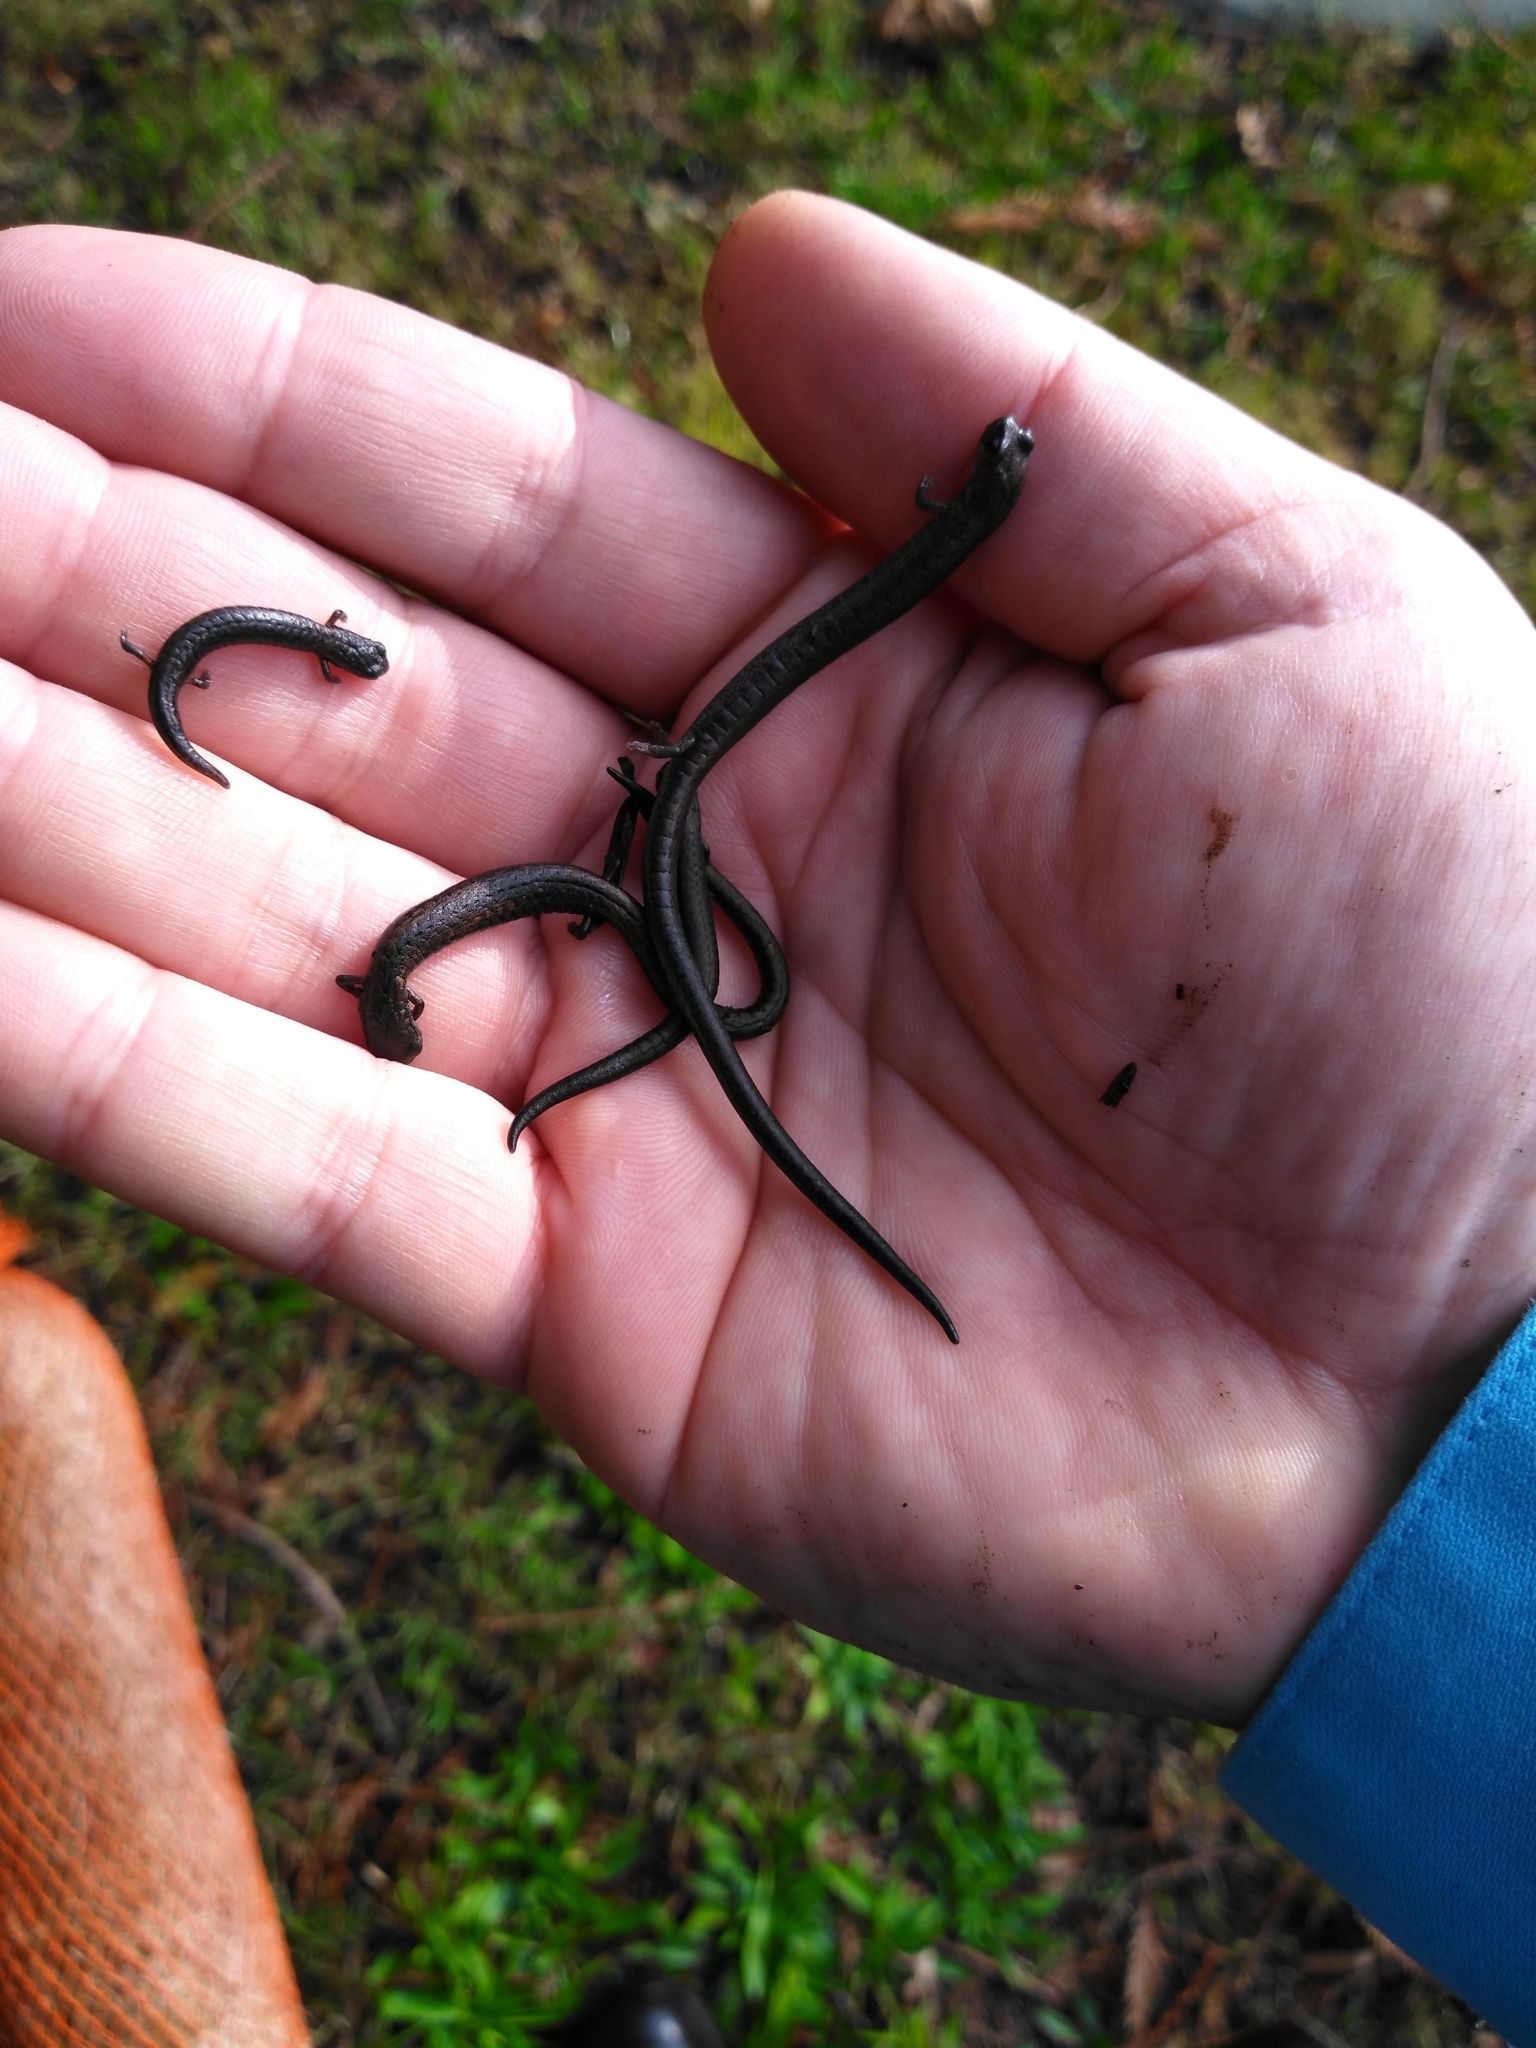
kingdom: Animalia
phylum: Chordata
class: Amphibia
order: Caudata
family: Plethodontidae
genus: Batrachoseps
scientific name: Batrachoseps attenuatus
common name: California slender salamander
